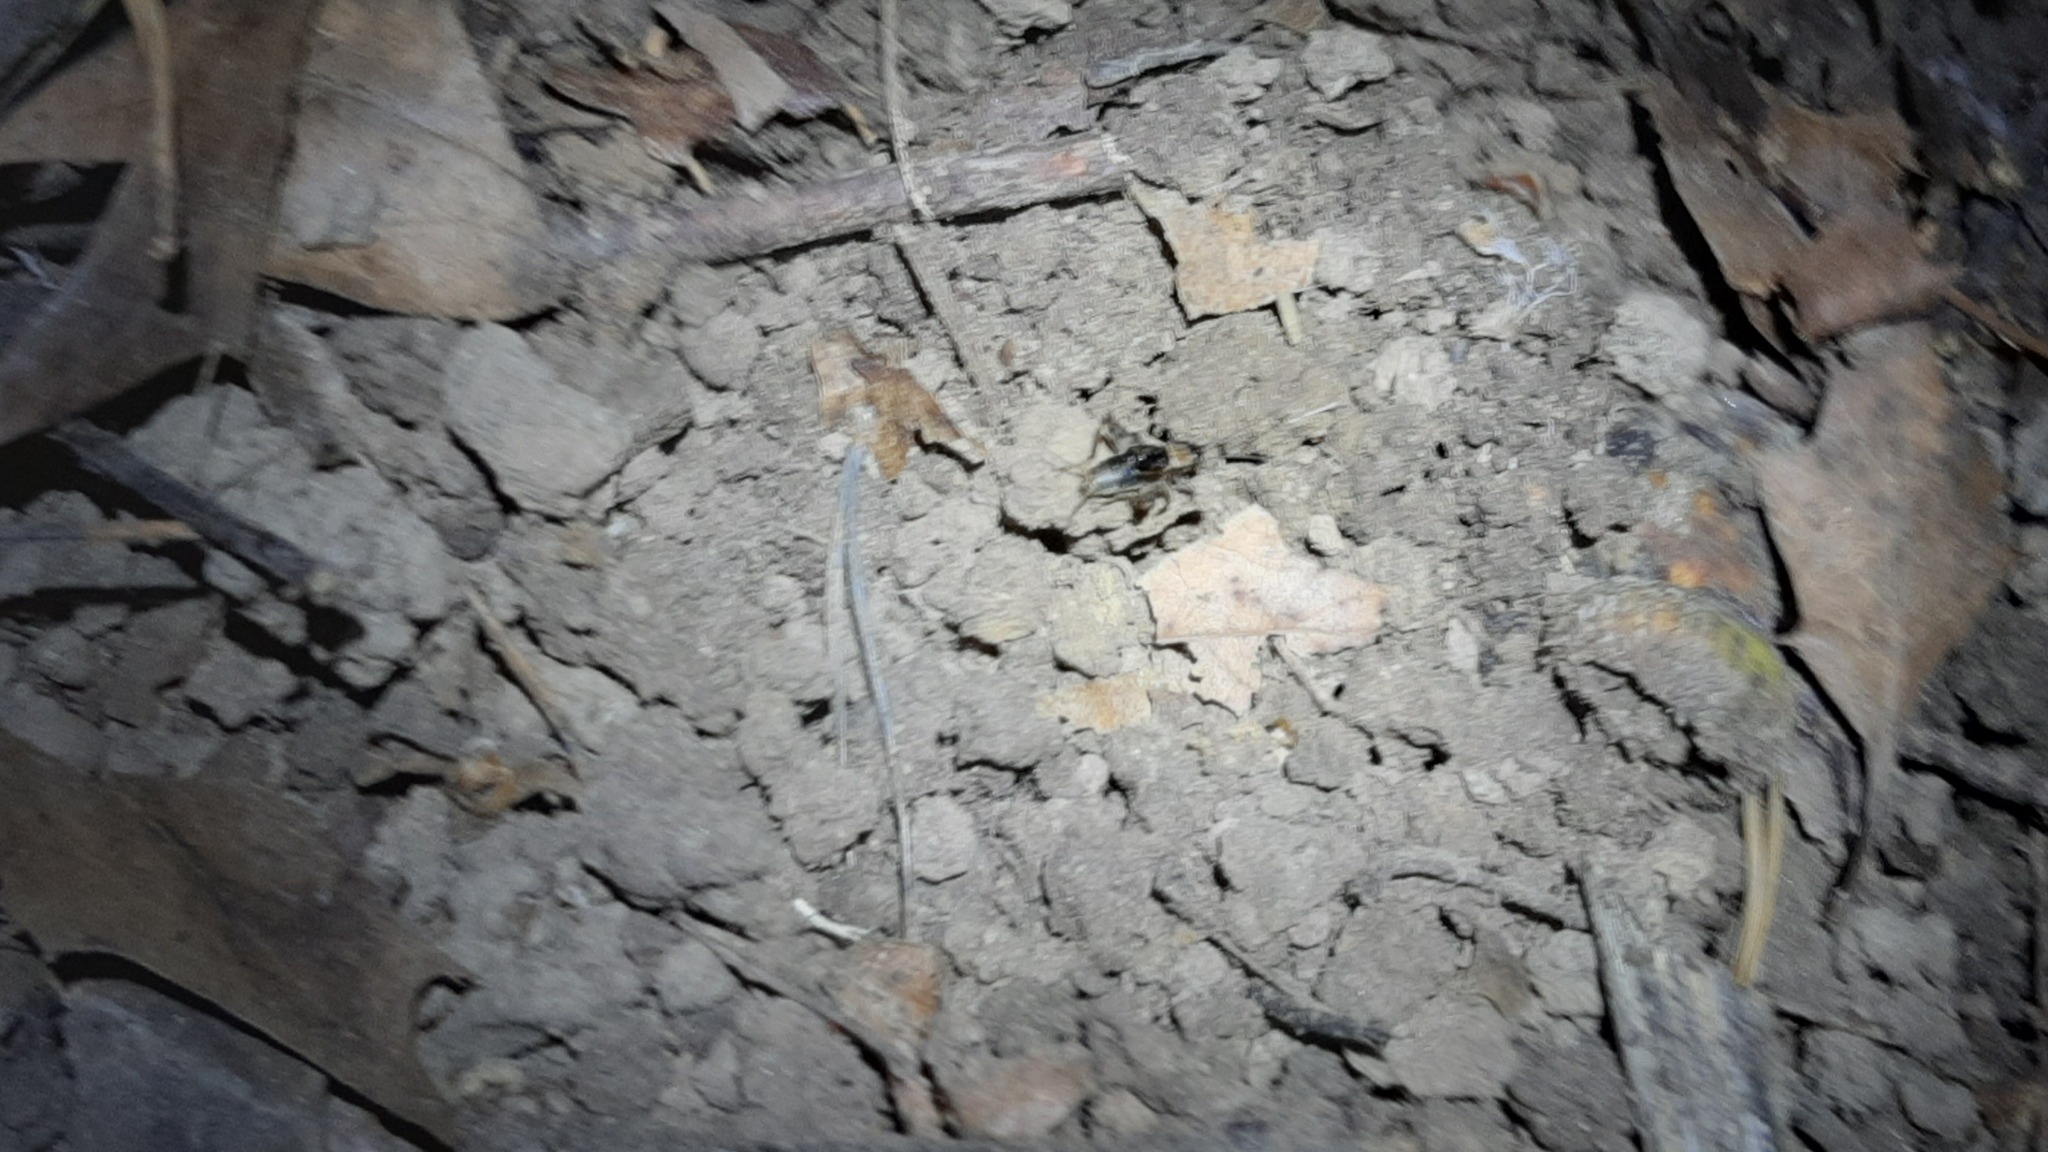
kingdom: Animalia
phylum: Arthropoda
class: Insecta
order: Orthoptera
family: Trigonidiidae
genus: Nemobius
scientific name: Nemobius sylvestris
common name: Wood-cricket
